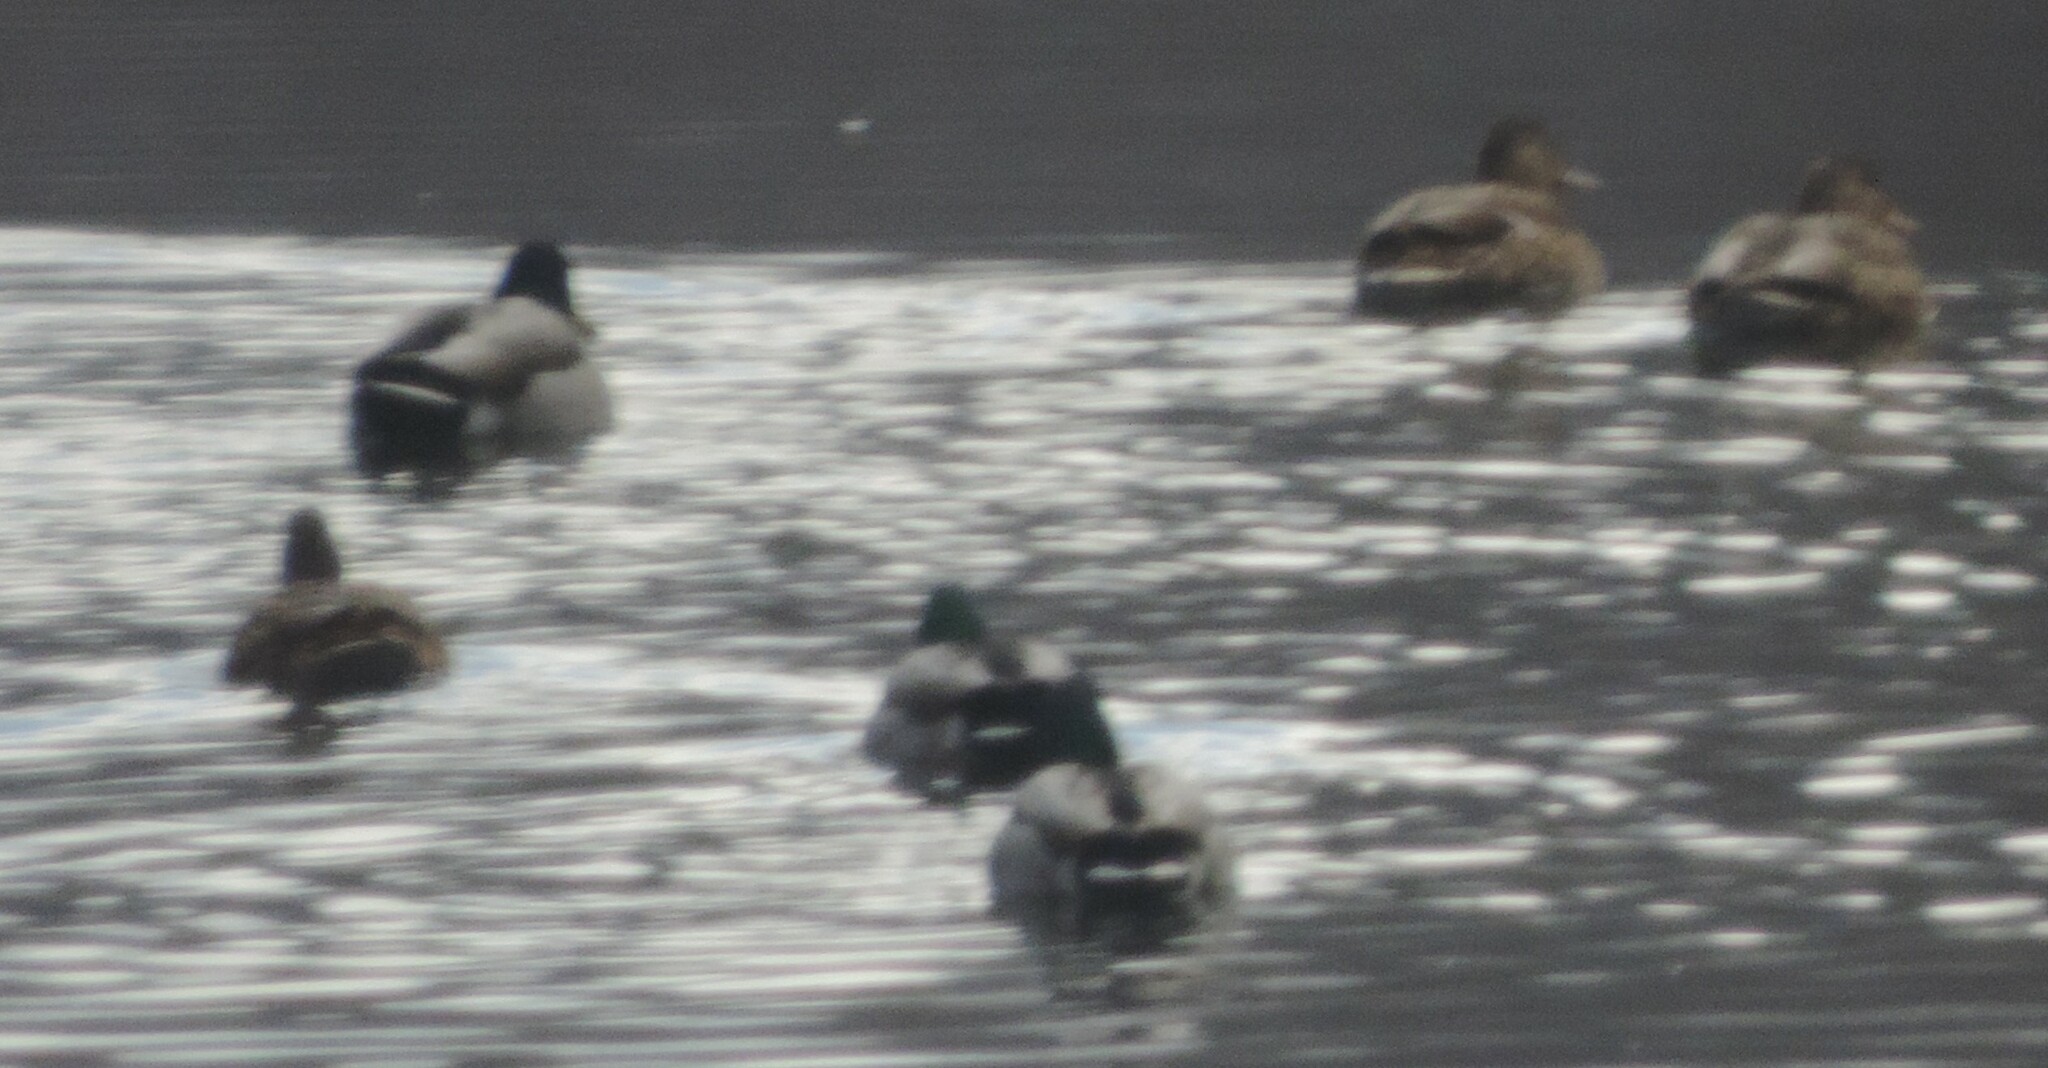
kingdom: Animalia
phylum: Chordata
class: Aves
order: Anseriformes
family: Anatidae
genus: Anas
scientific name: Anas platyrhynchos
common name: Mallard
